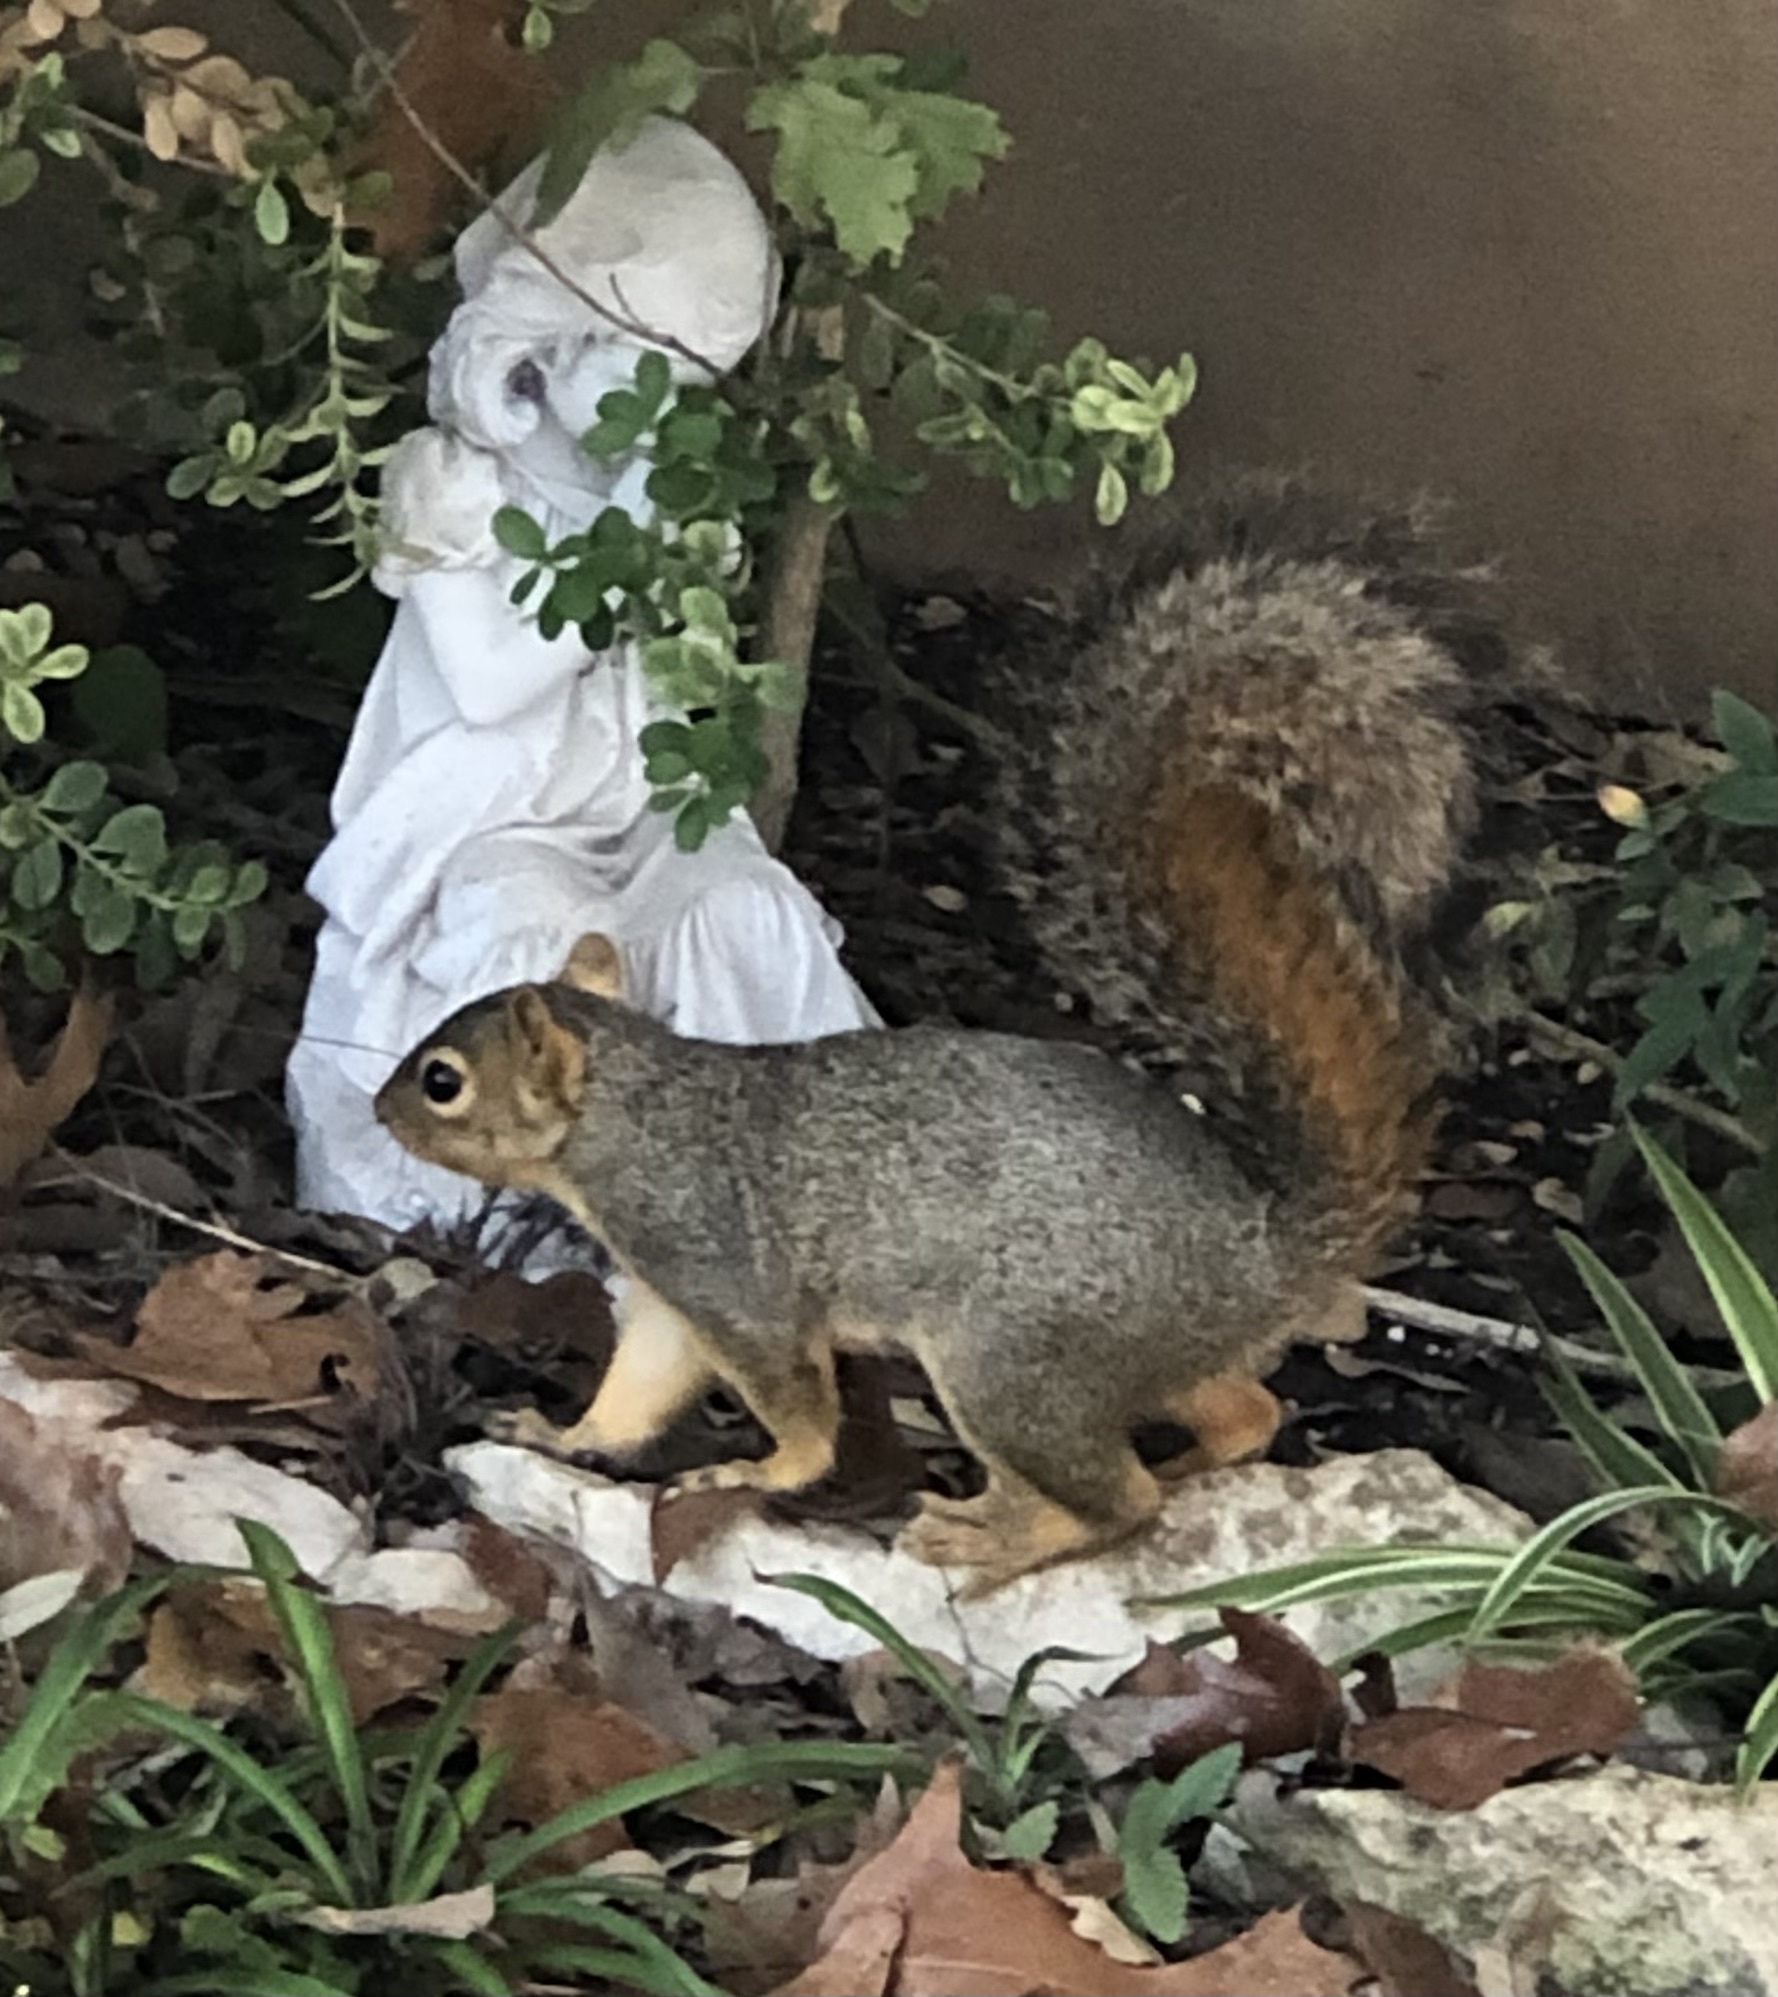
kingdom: Animalia
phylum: Chordata
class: Mammalia
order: Rodentia
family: Sciuridae
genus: Sciurus
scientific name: Sciurus niger
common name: Fox squirrel
